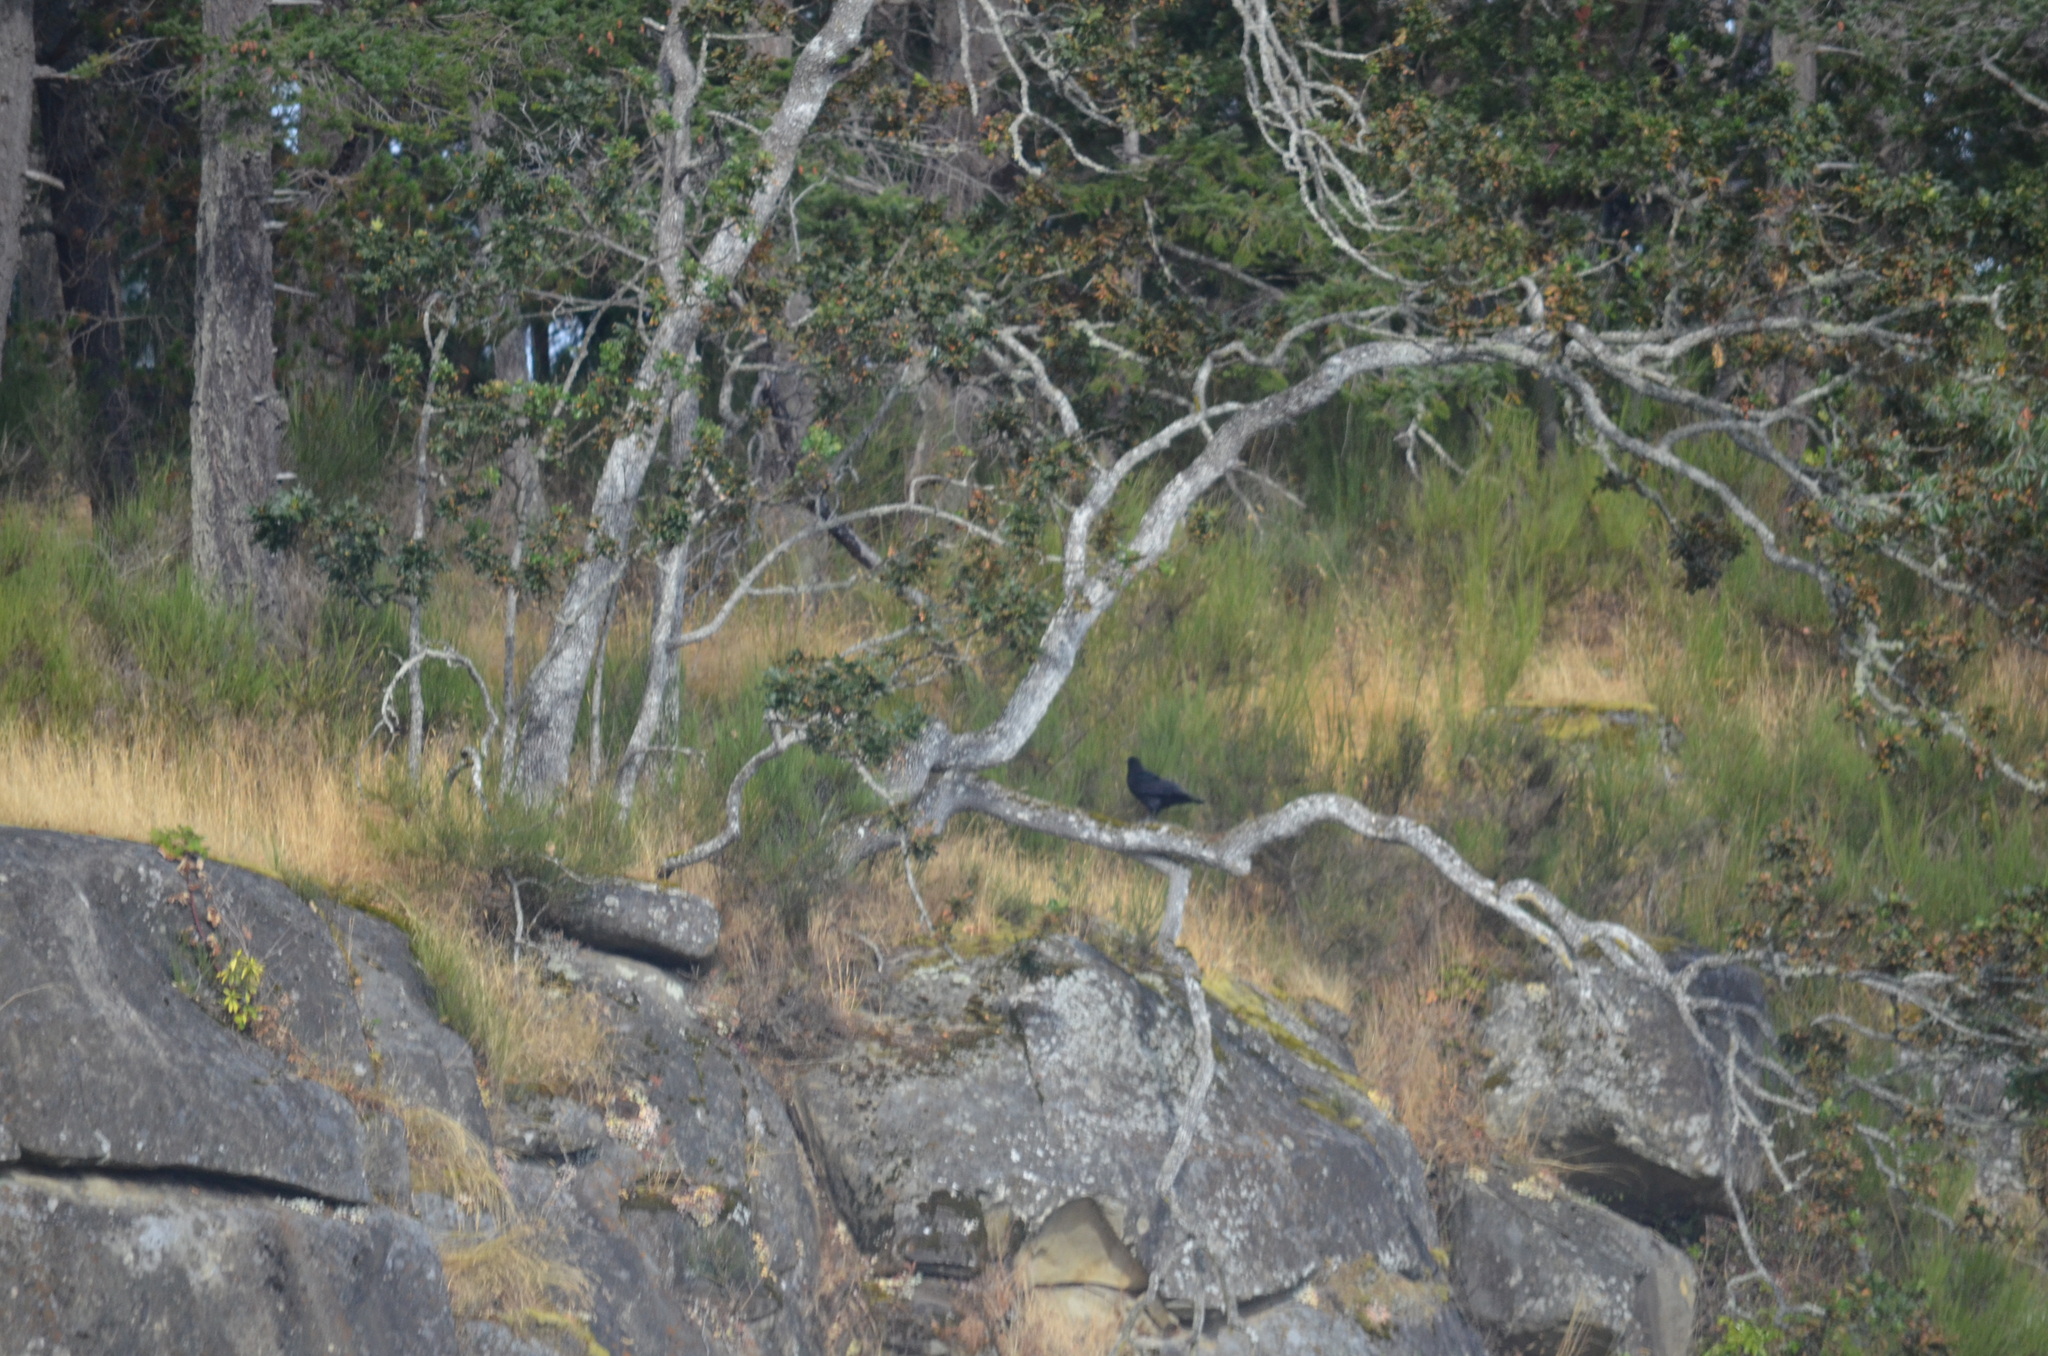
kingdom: Animalia
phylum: Chordata
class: Aves
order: Passeriformes
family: Corvidae
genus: Corvus
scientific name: Corvus corax
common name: Common raven
